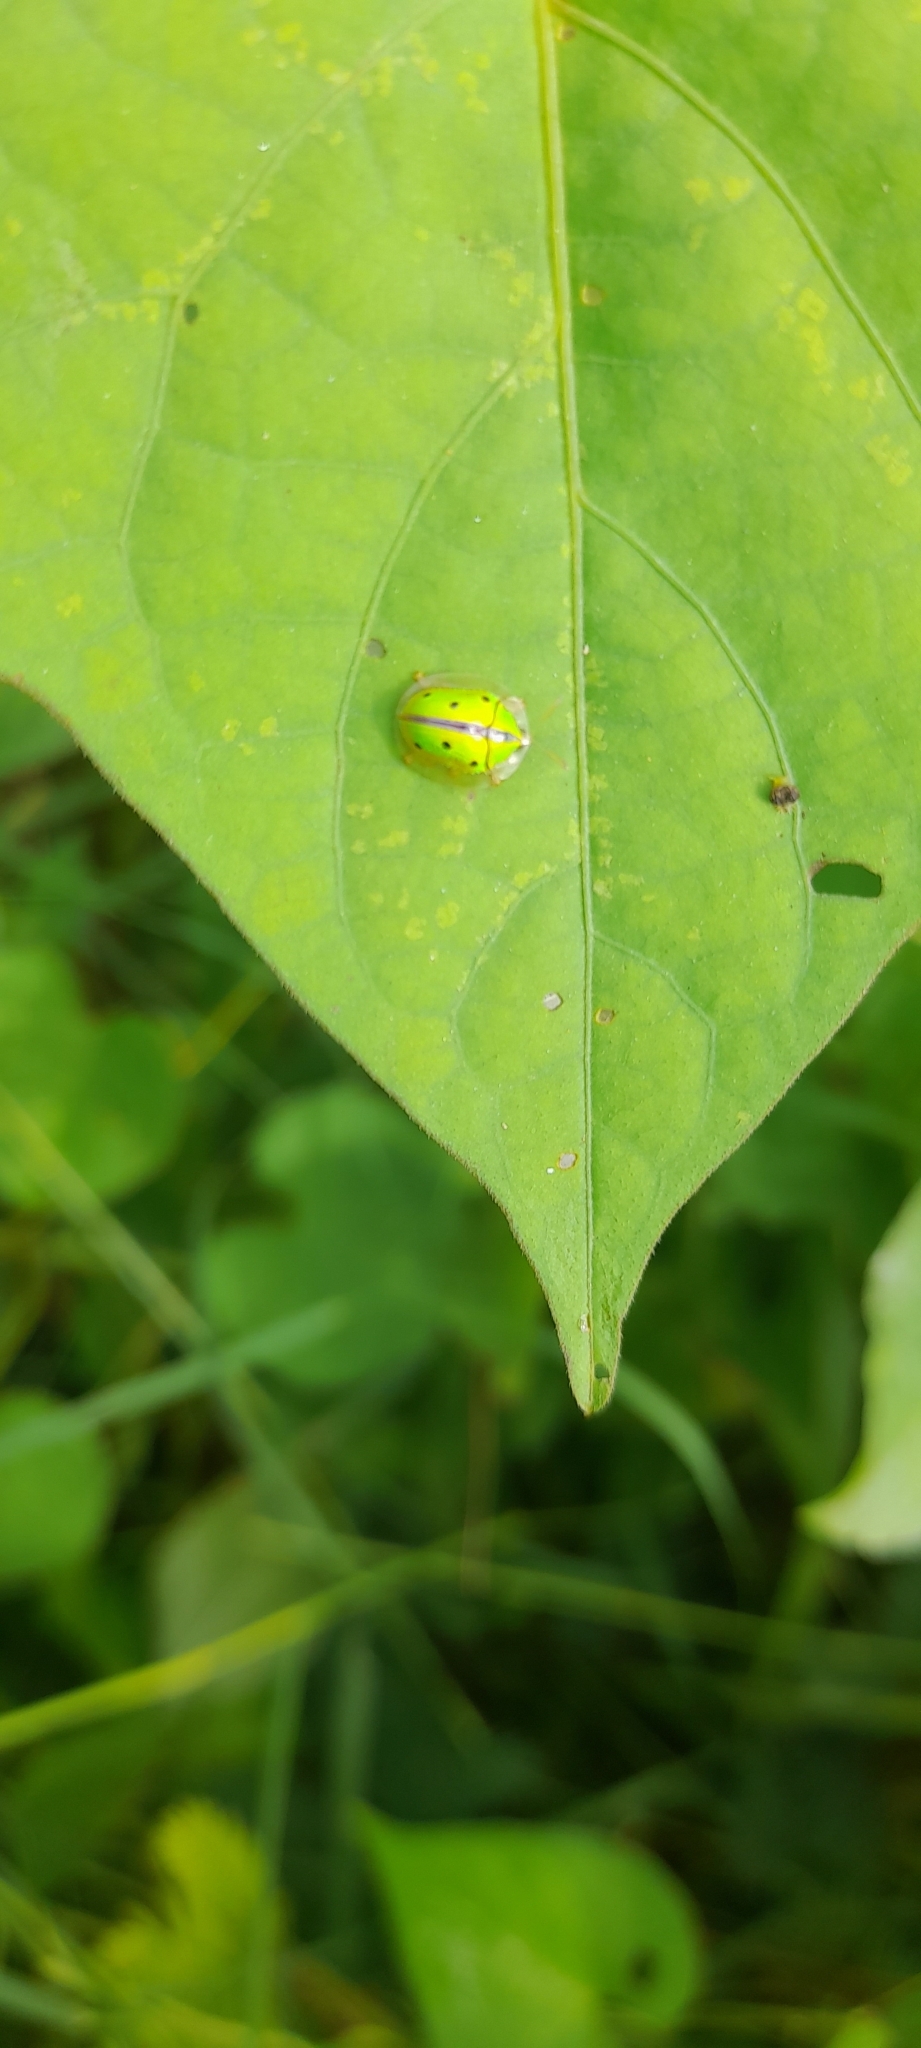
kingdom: Animalia
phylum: Arthropoda
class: Insecta
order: Coleoptera
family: Chrysomelidae
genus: Chiridopsis
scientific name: Chiridopsis bipunctata
